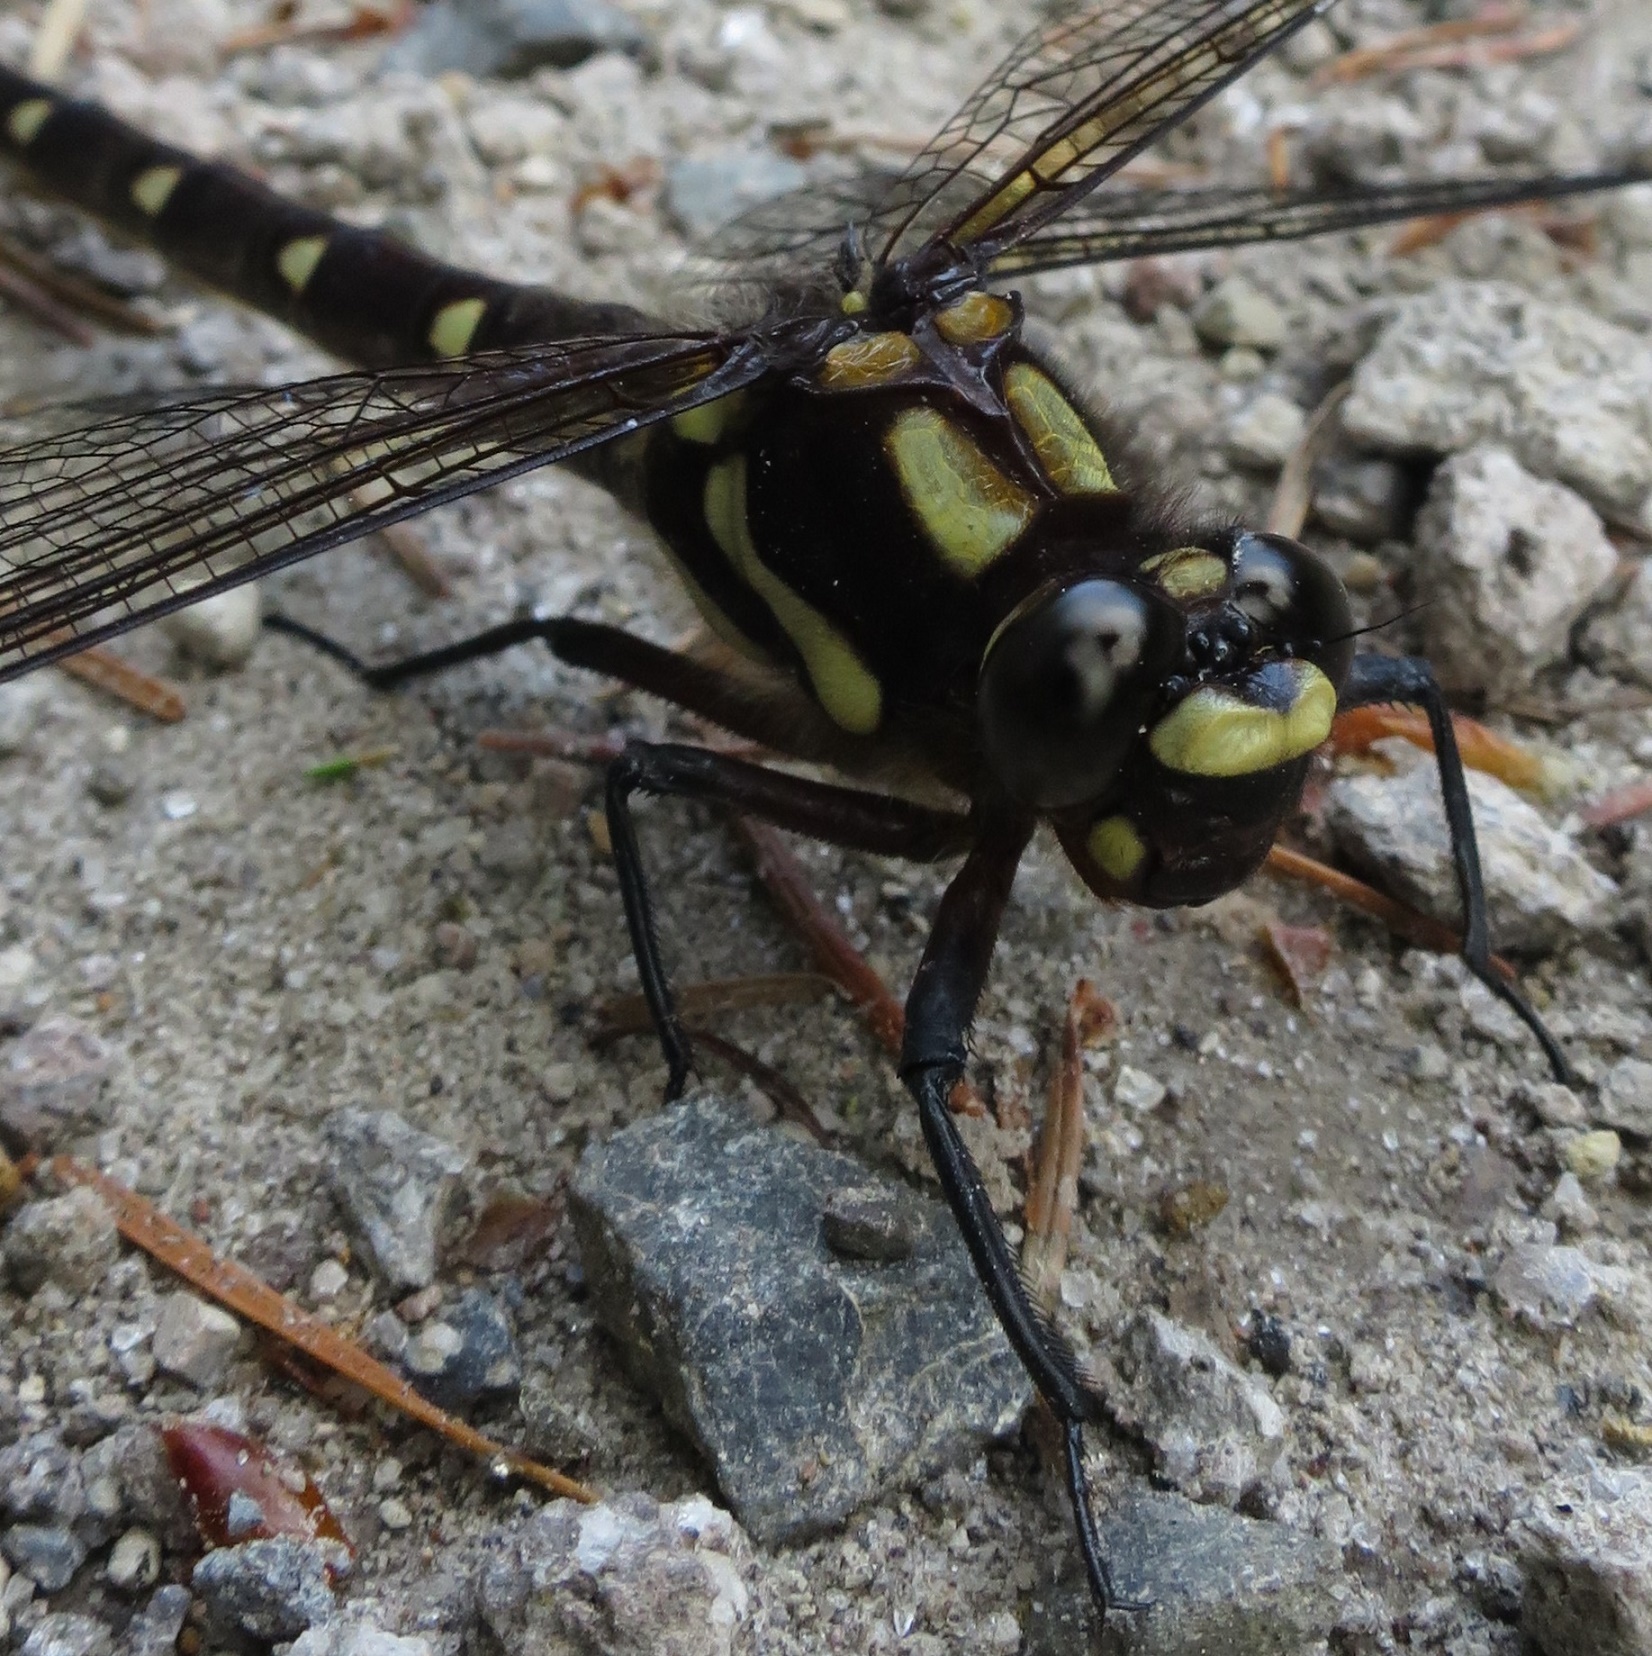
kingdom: Animalia
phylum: Arthropoda
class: Insecta
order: Odonata
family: Petaluridae
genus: Uropetala
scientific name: Uropetala carovei
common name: Bush giant dragonfly
